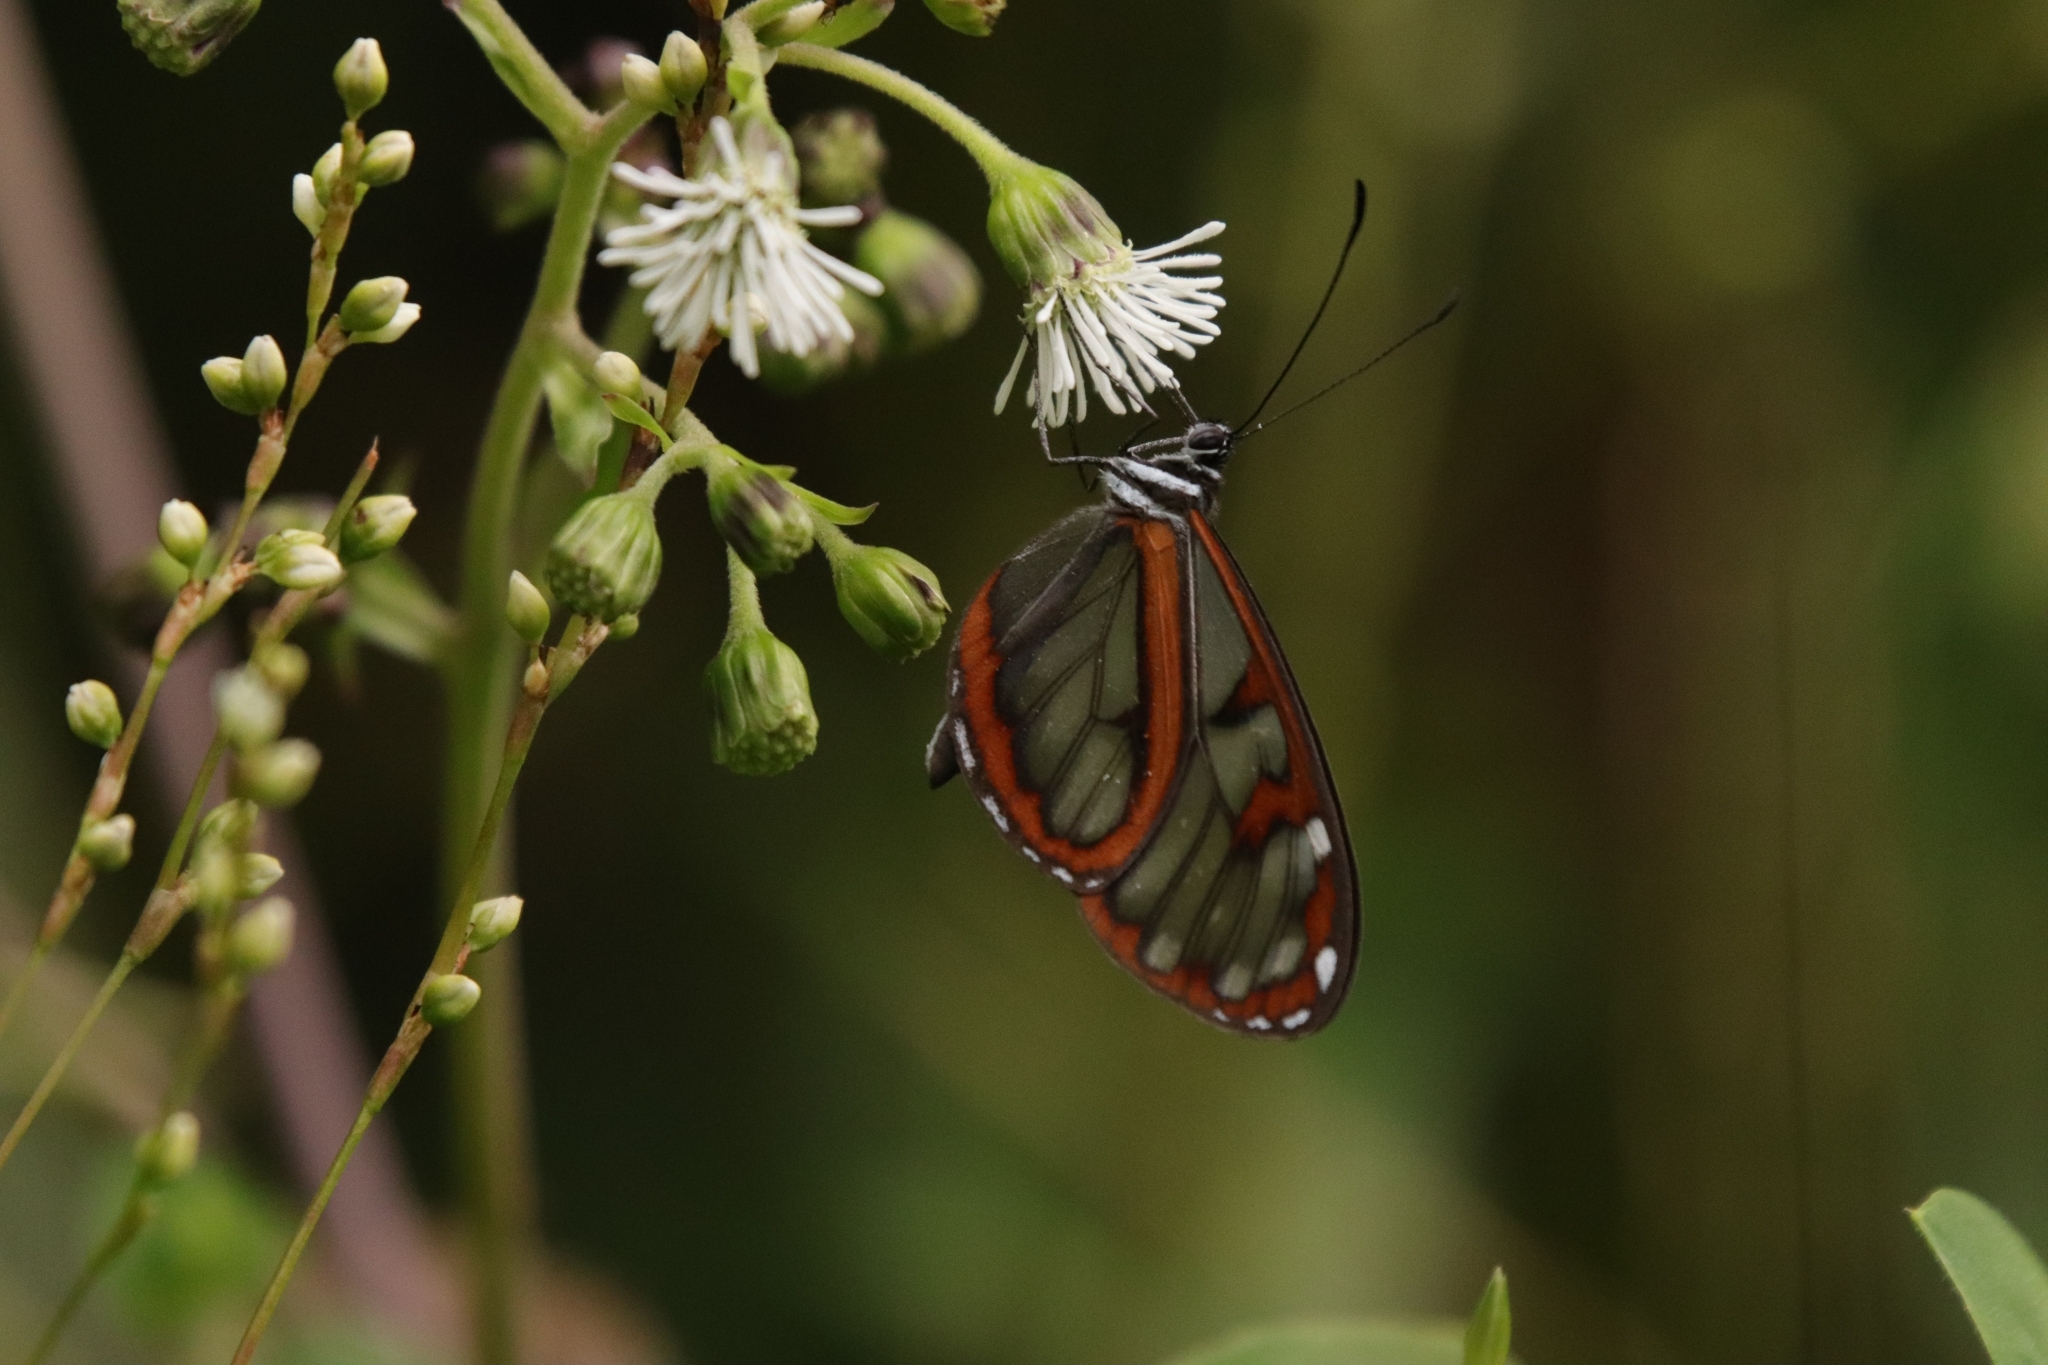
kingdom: Animalia
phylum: Arthropoda
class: Insecta
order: Lepidoptera
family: Nymphalidae
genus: Oleria
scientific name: Oleria tremona
